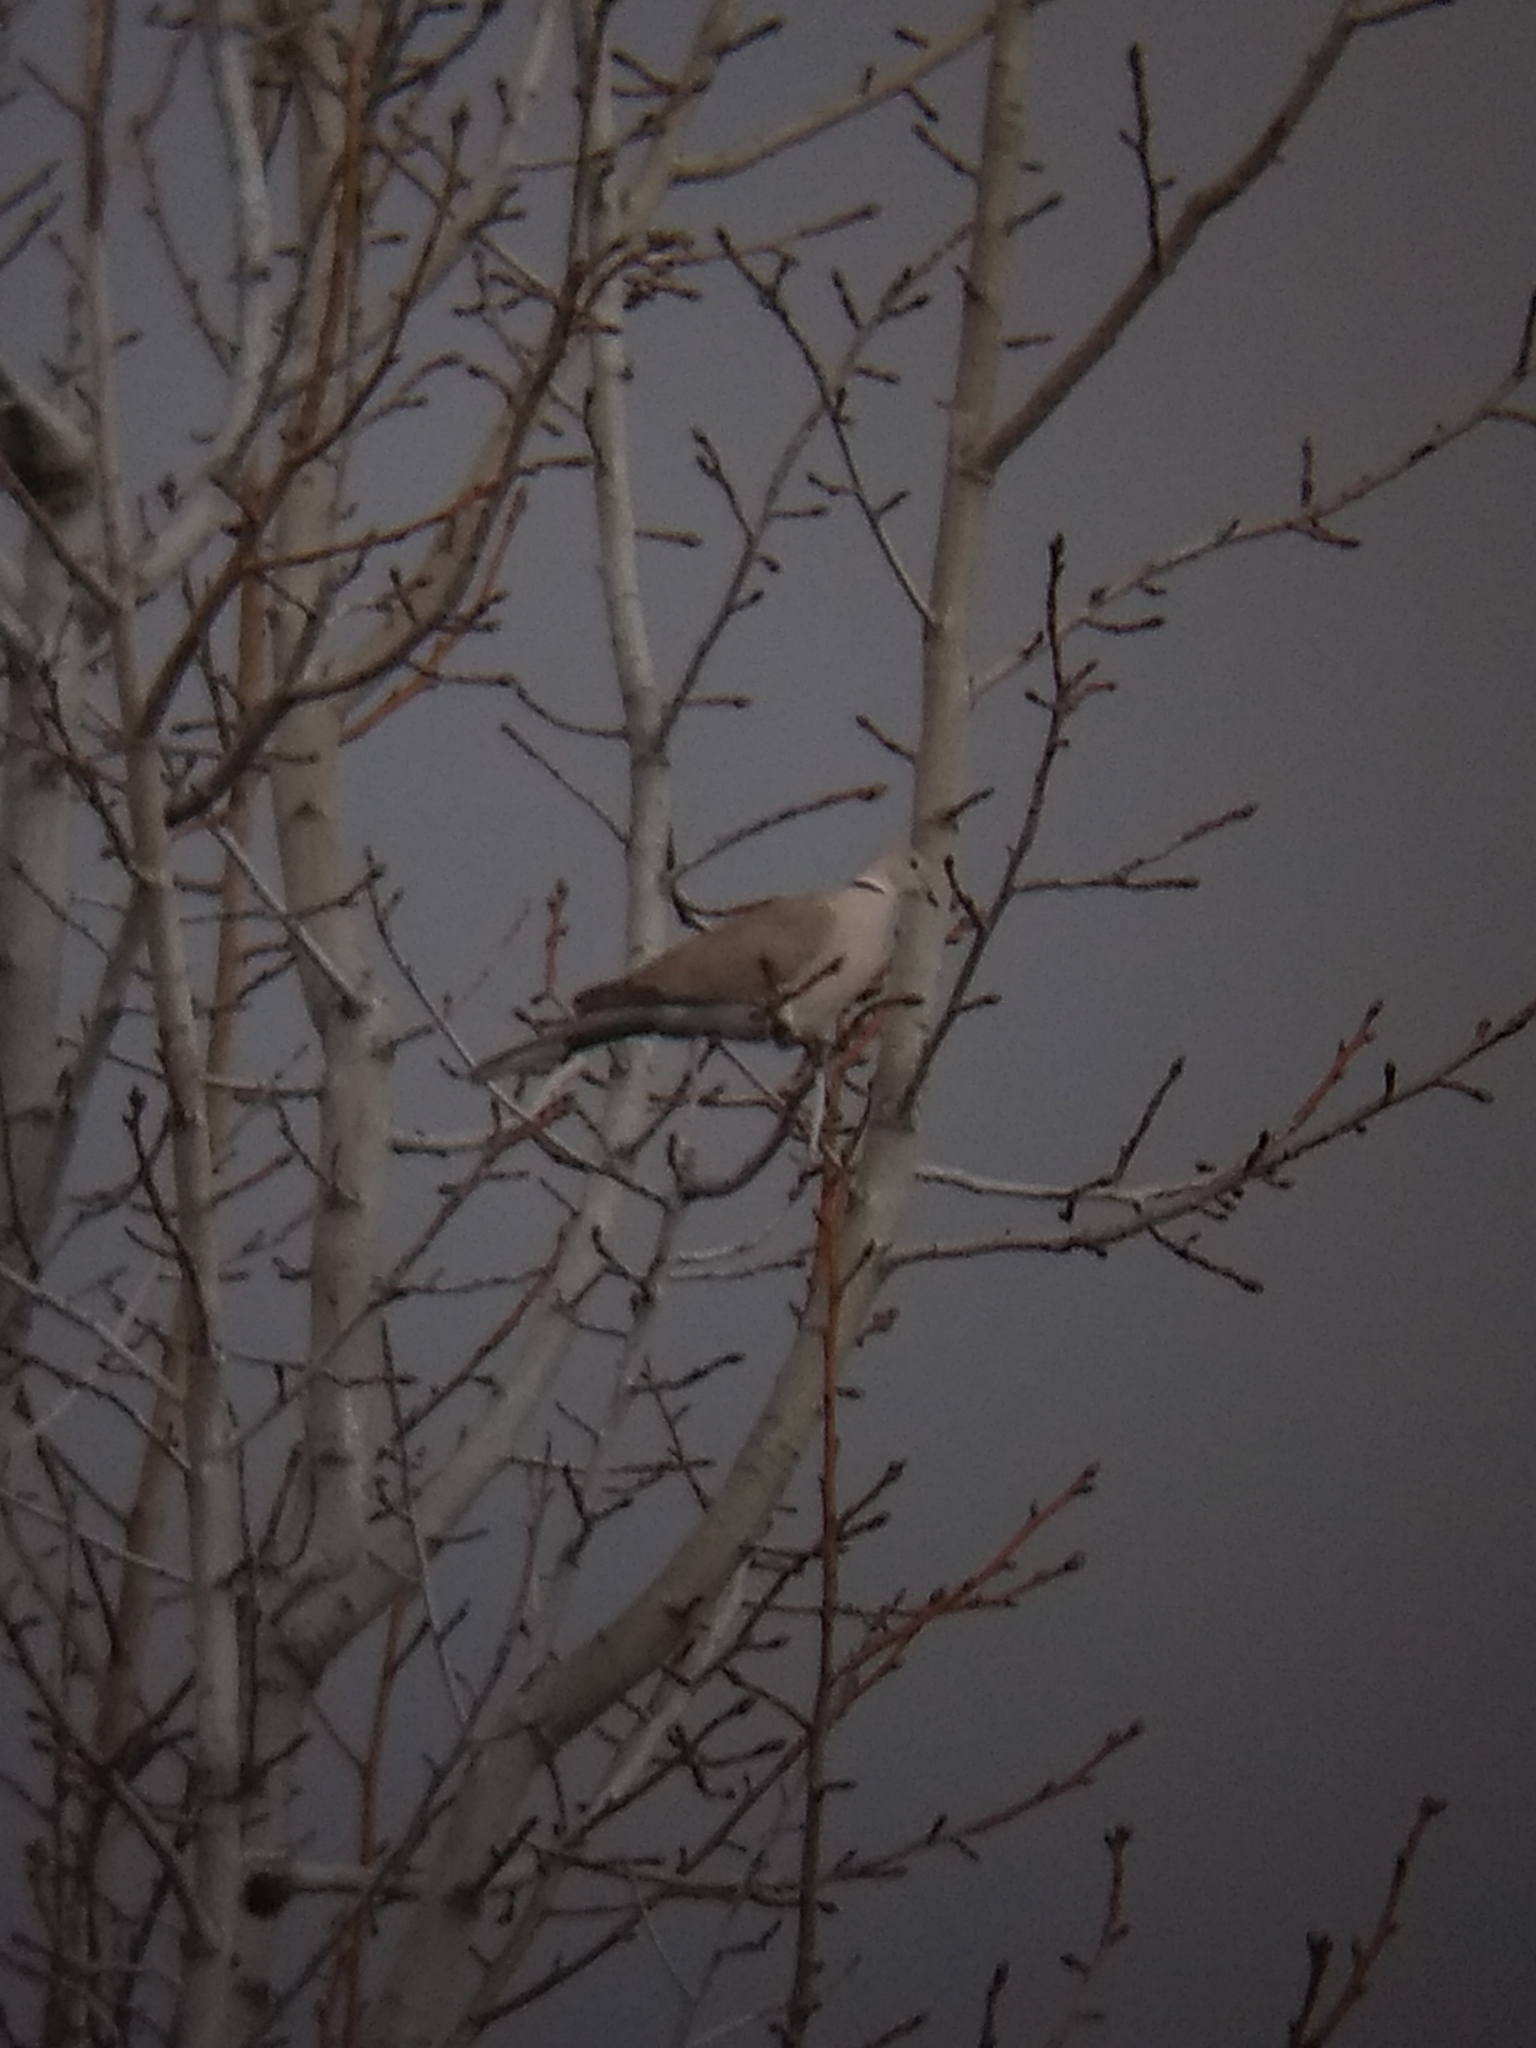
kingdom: Animalia
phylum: Chordata
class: Aves
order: Columbiformes
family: Columbidae
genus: Streptopelia
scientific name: Streptopelia decaocto
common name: Eurasian collared dove
